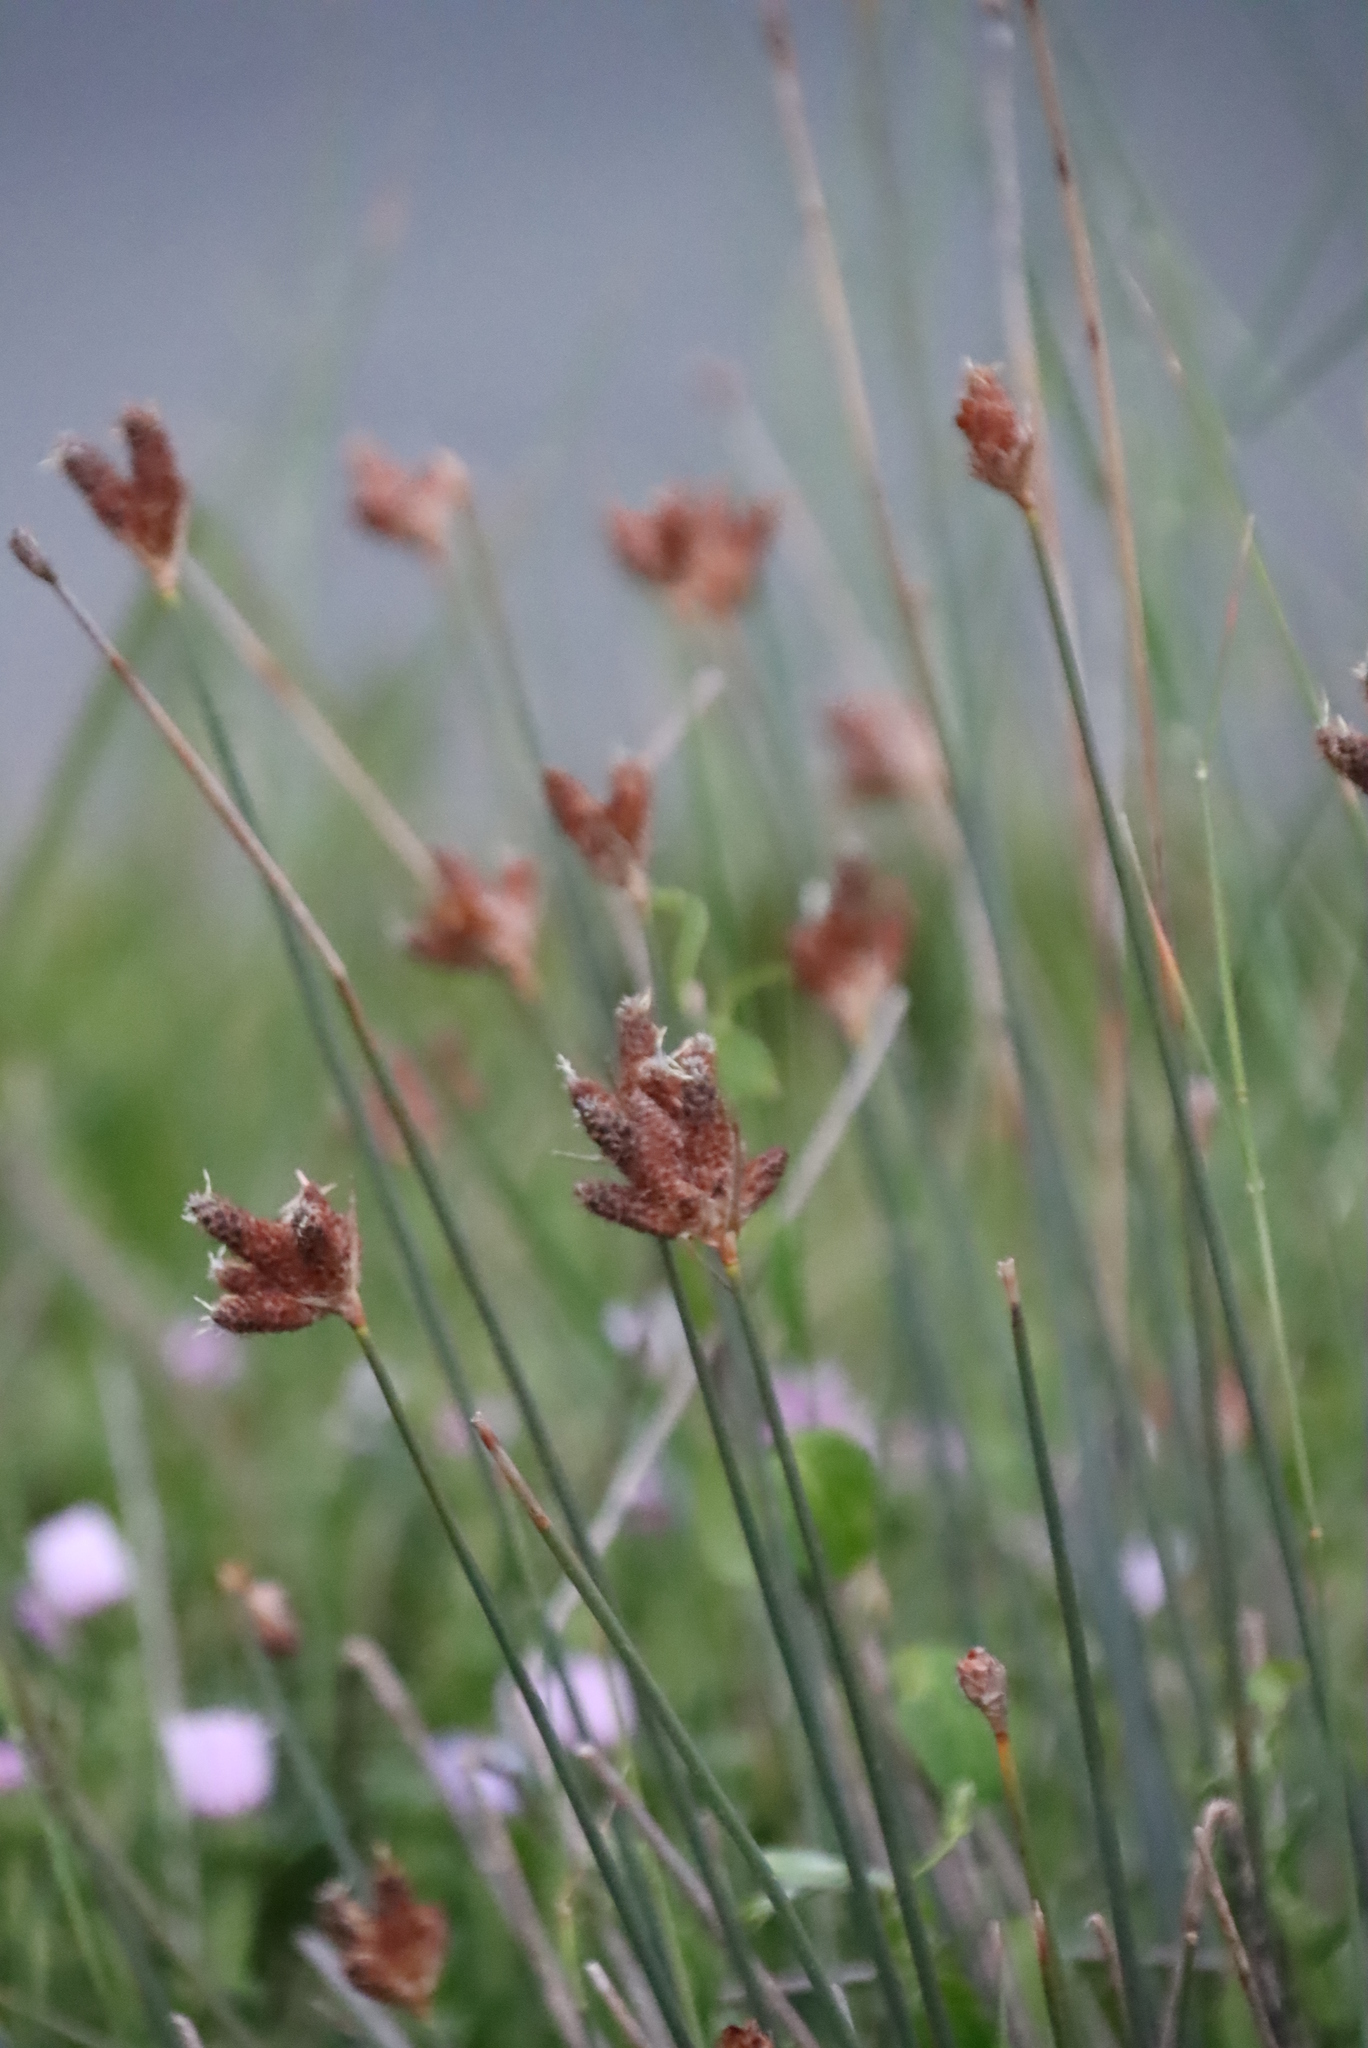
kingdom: Plantae
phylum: Tracheophyta
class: Liliopsida
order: Poales
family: Cyperaceae
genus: Hellmuthia
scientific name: Hellmuthia membranacea
